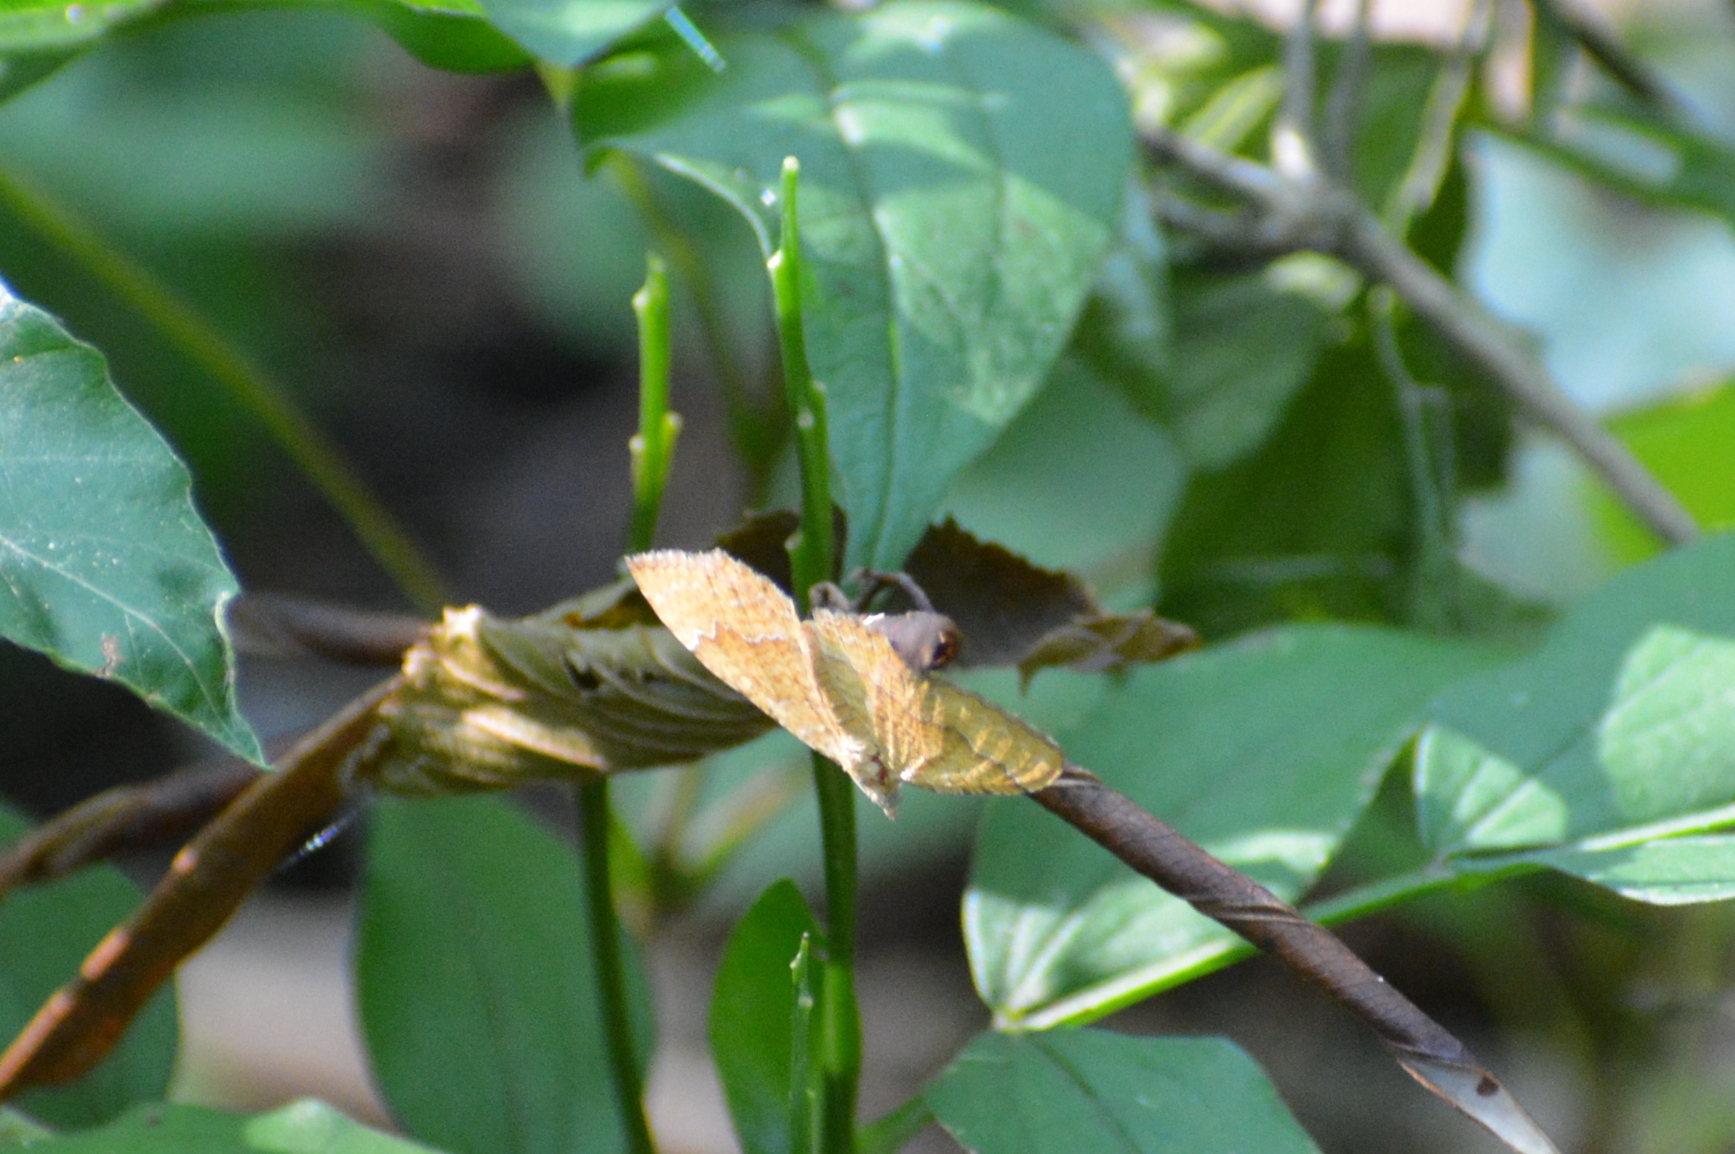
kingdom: Animalia
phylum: Arthropoda
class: Insecta
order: Lepidoptera
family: Geometridae
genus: Camptogramma
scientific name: Camptogramma bilineata
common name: Yellow shell
